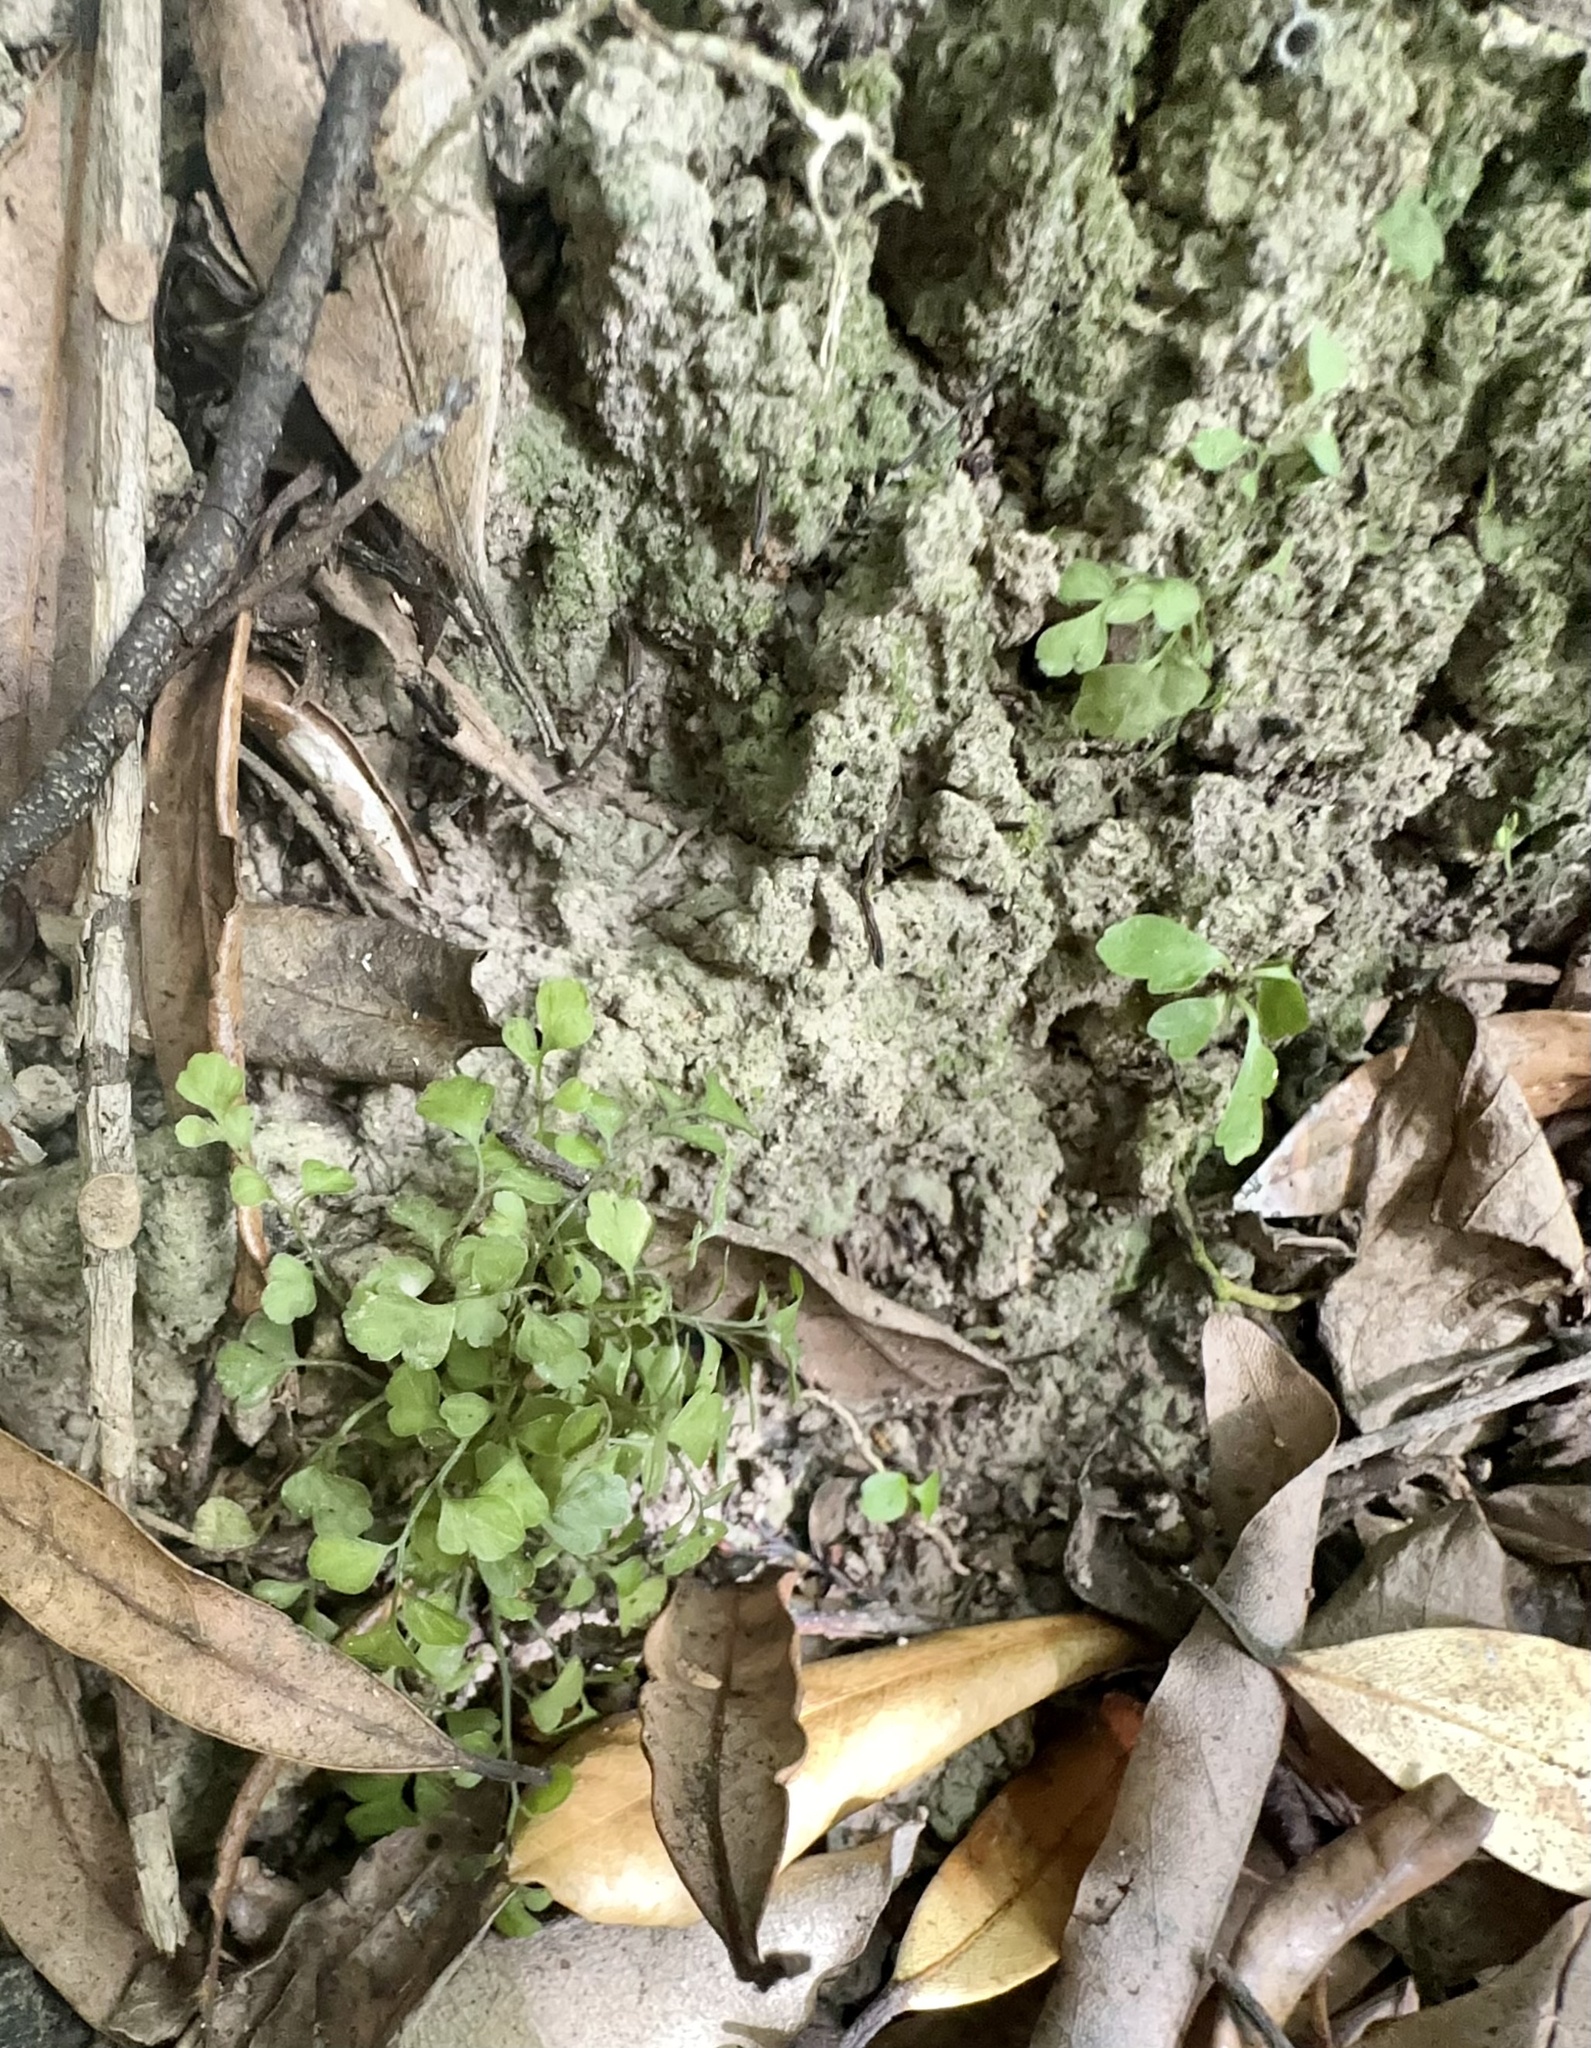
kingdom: Plantae
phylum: Tracheophyta
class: Polypodiopsida
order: Polypodiales
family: Aspleniaceae
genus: Asplenium
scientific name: Asplenium hookerianum
